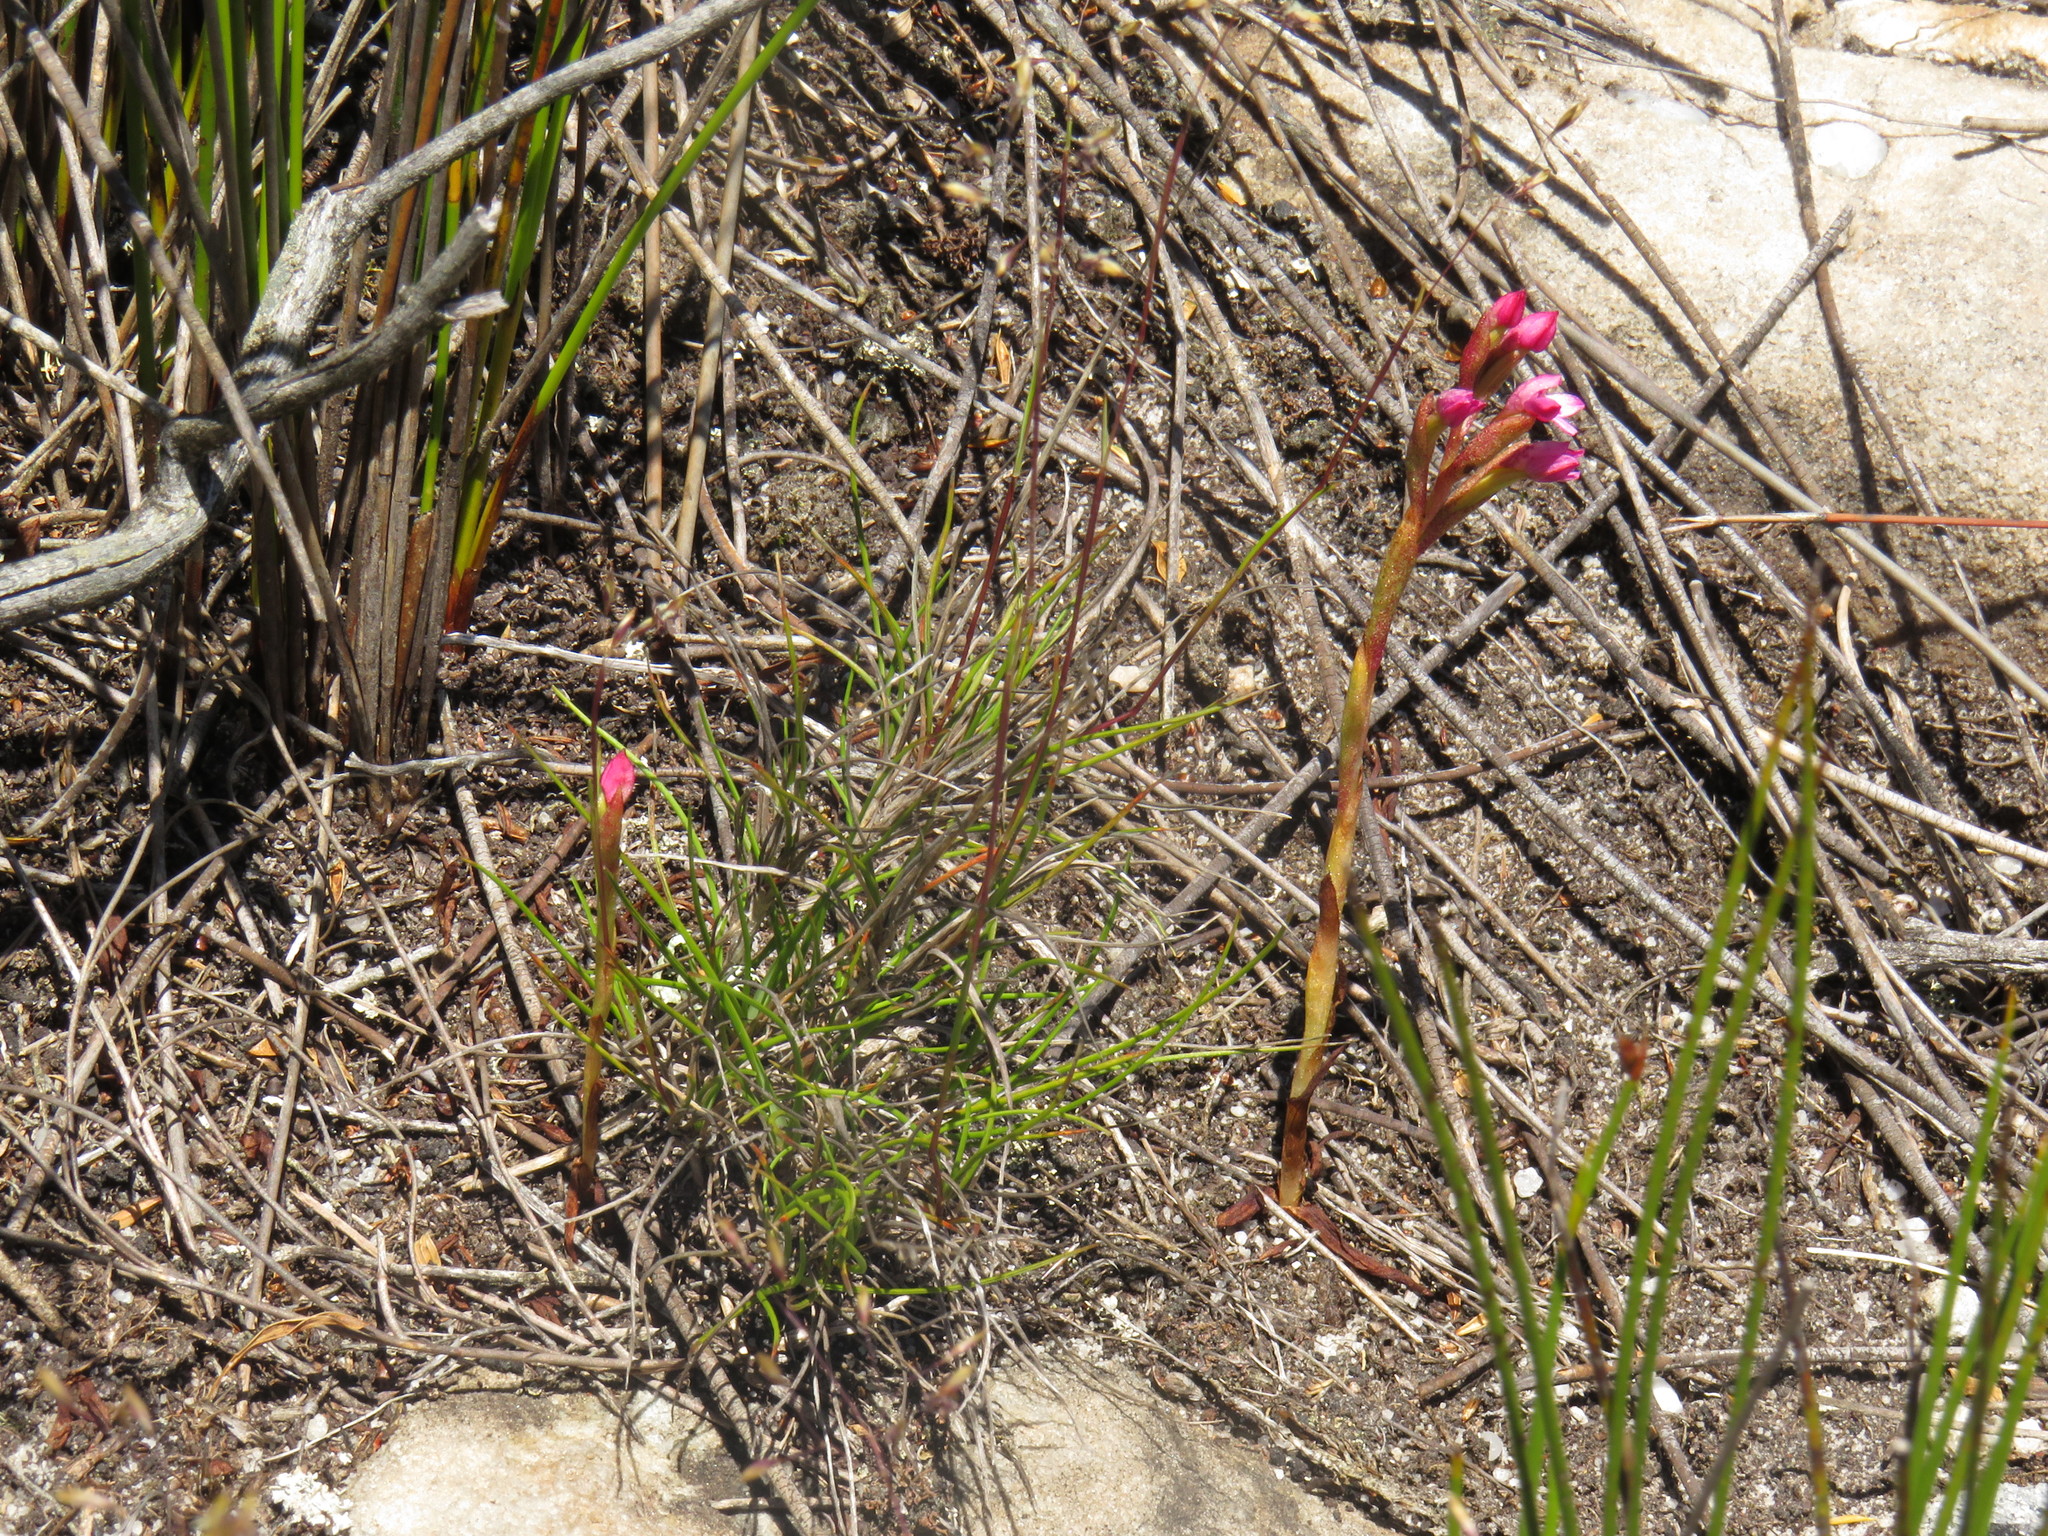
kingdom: Plantae
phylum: Tracheophyta
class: Liliopsida
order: Asparagales
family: Orchidaceae
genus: Disa
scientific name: Disa vaginata
